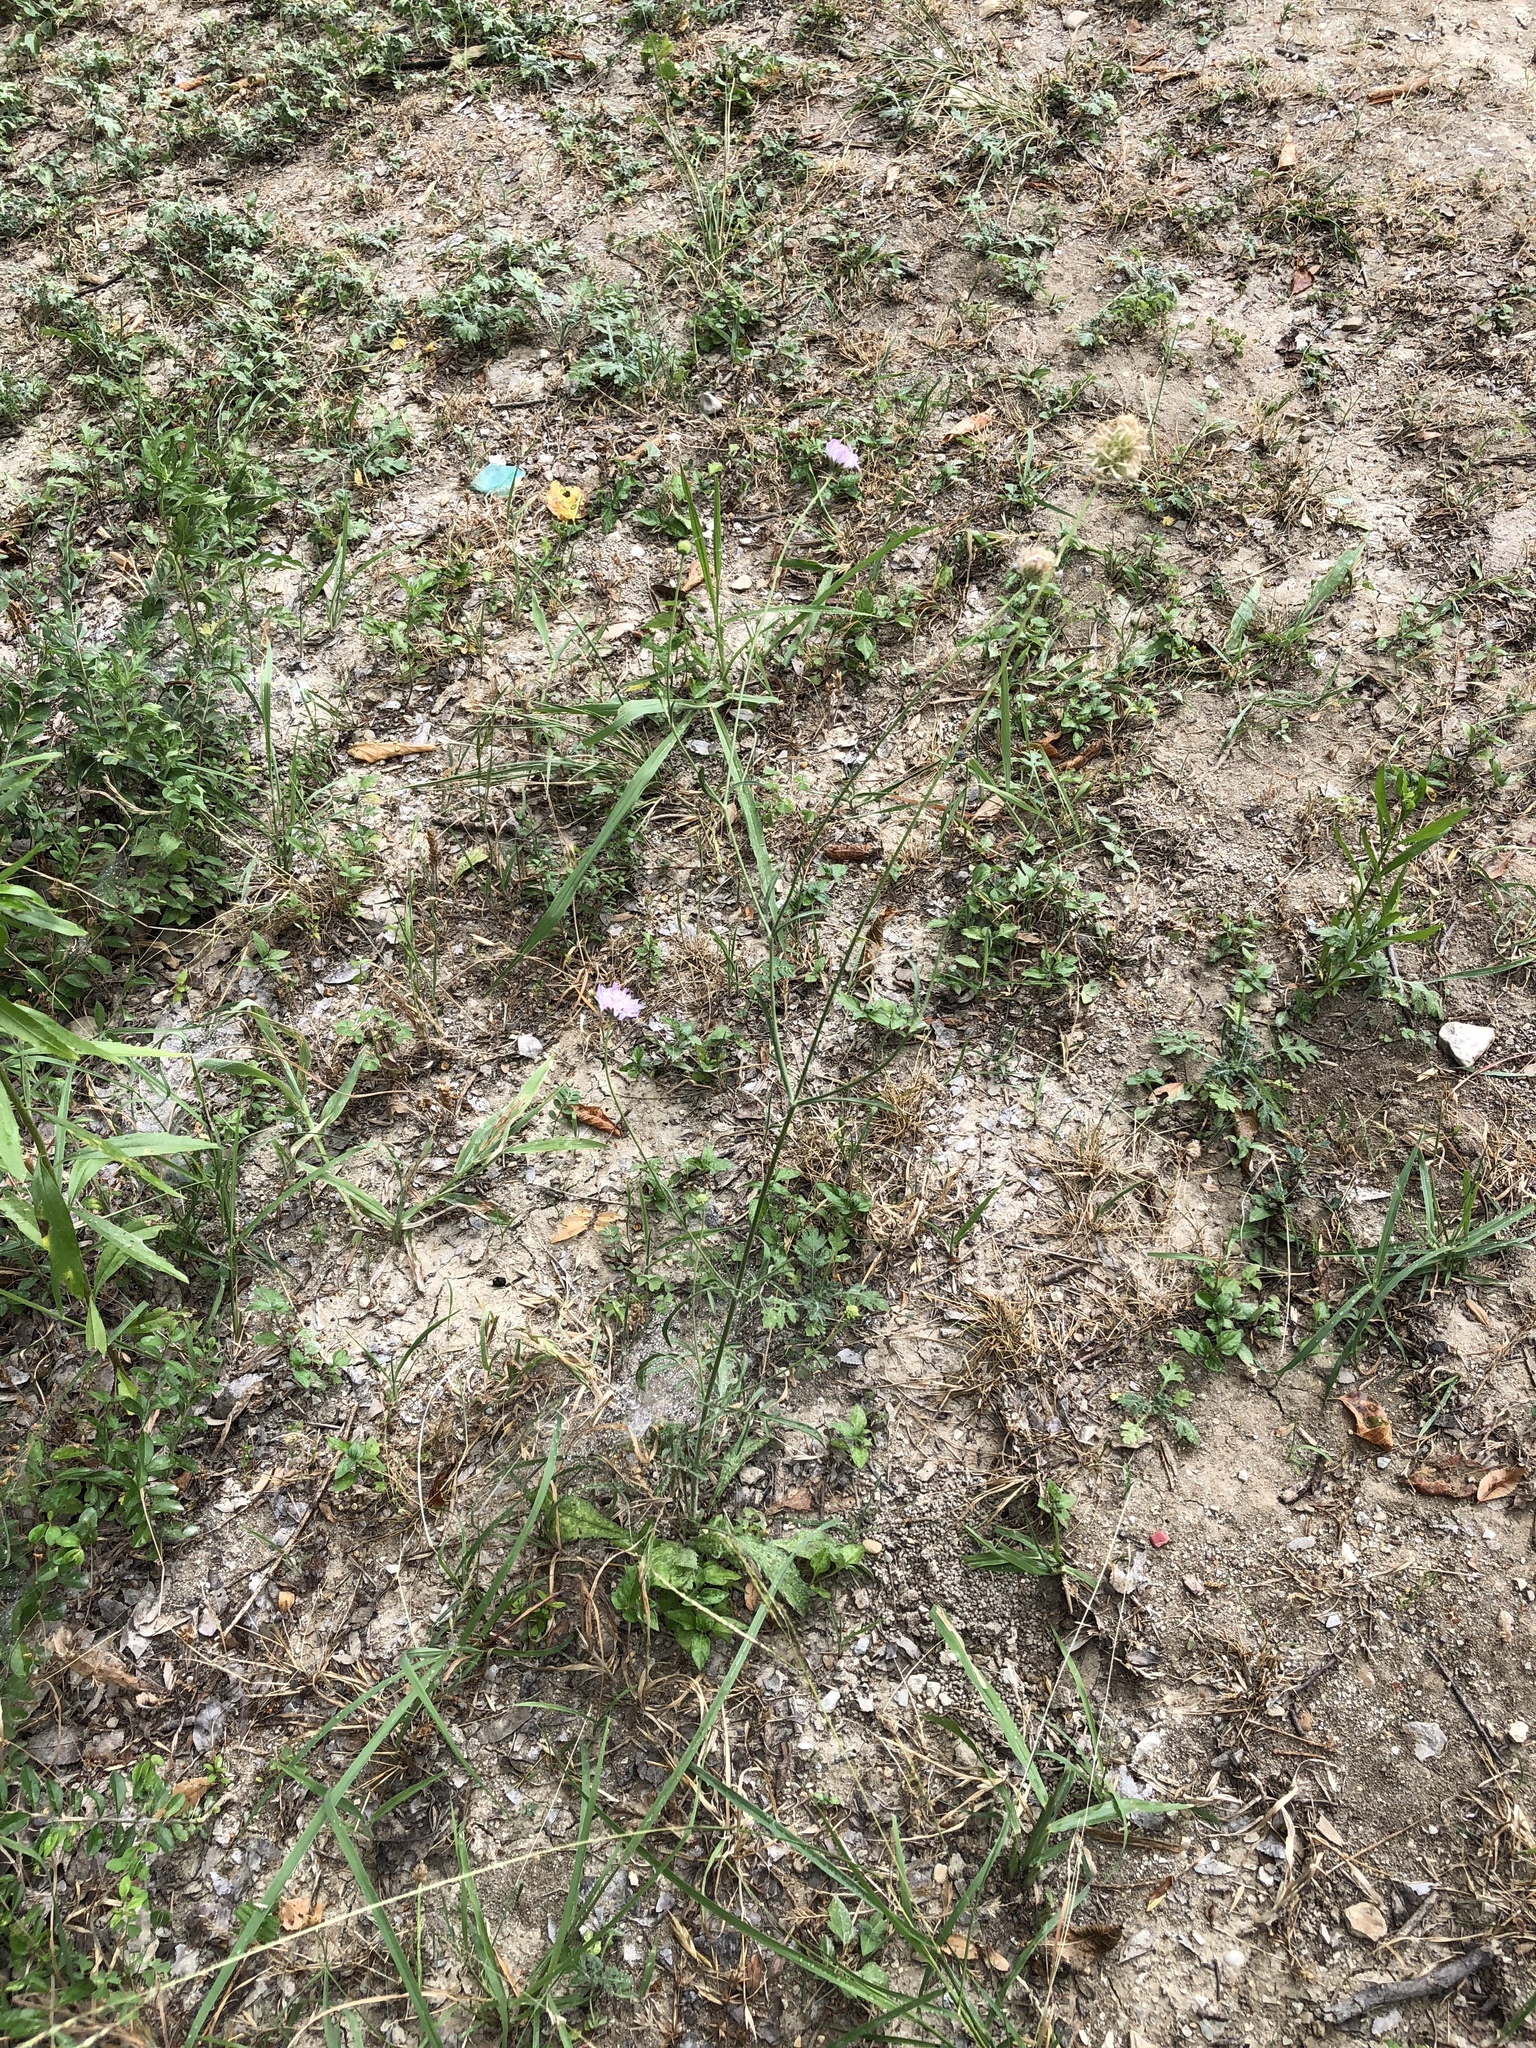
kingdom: Plantae
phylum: Tracheophyta
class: Magnoliopsida
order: Dipsacales
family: Caprifoliaceae
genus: Sixalix
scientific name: Sixalix atropurpurea
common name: Sweet scabious
